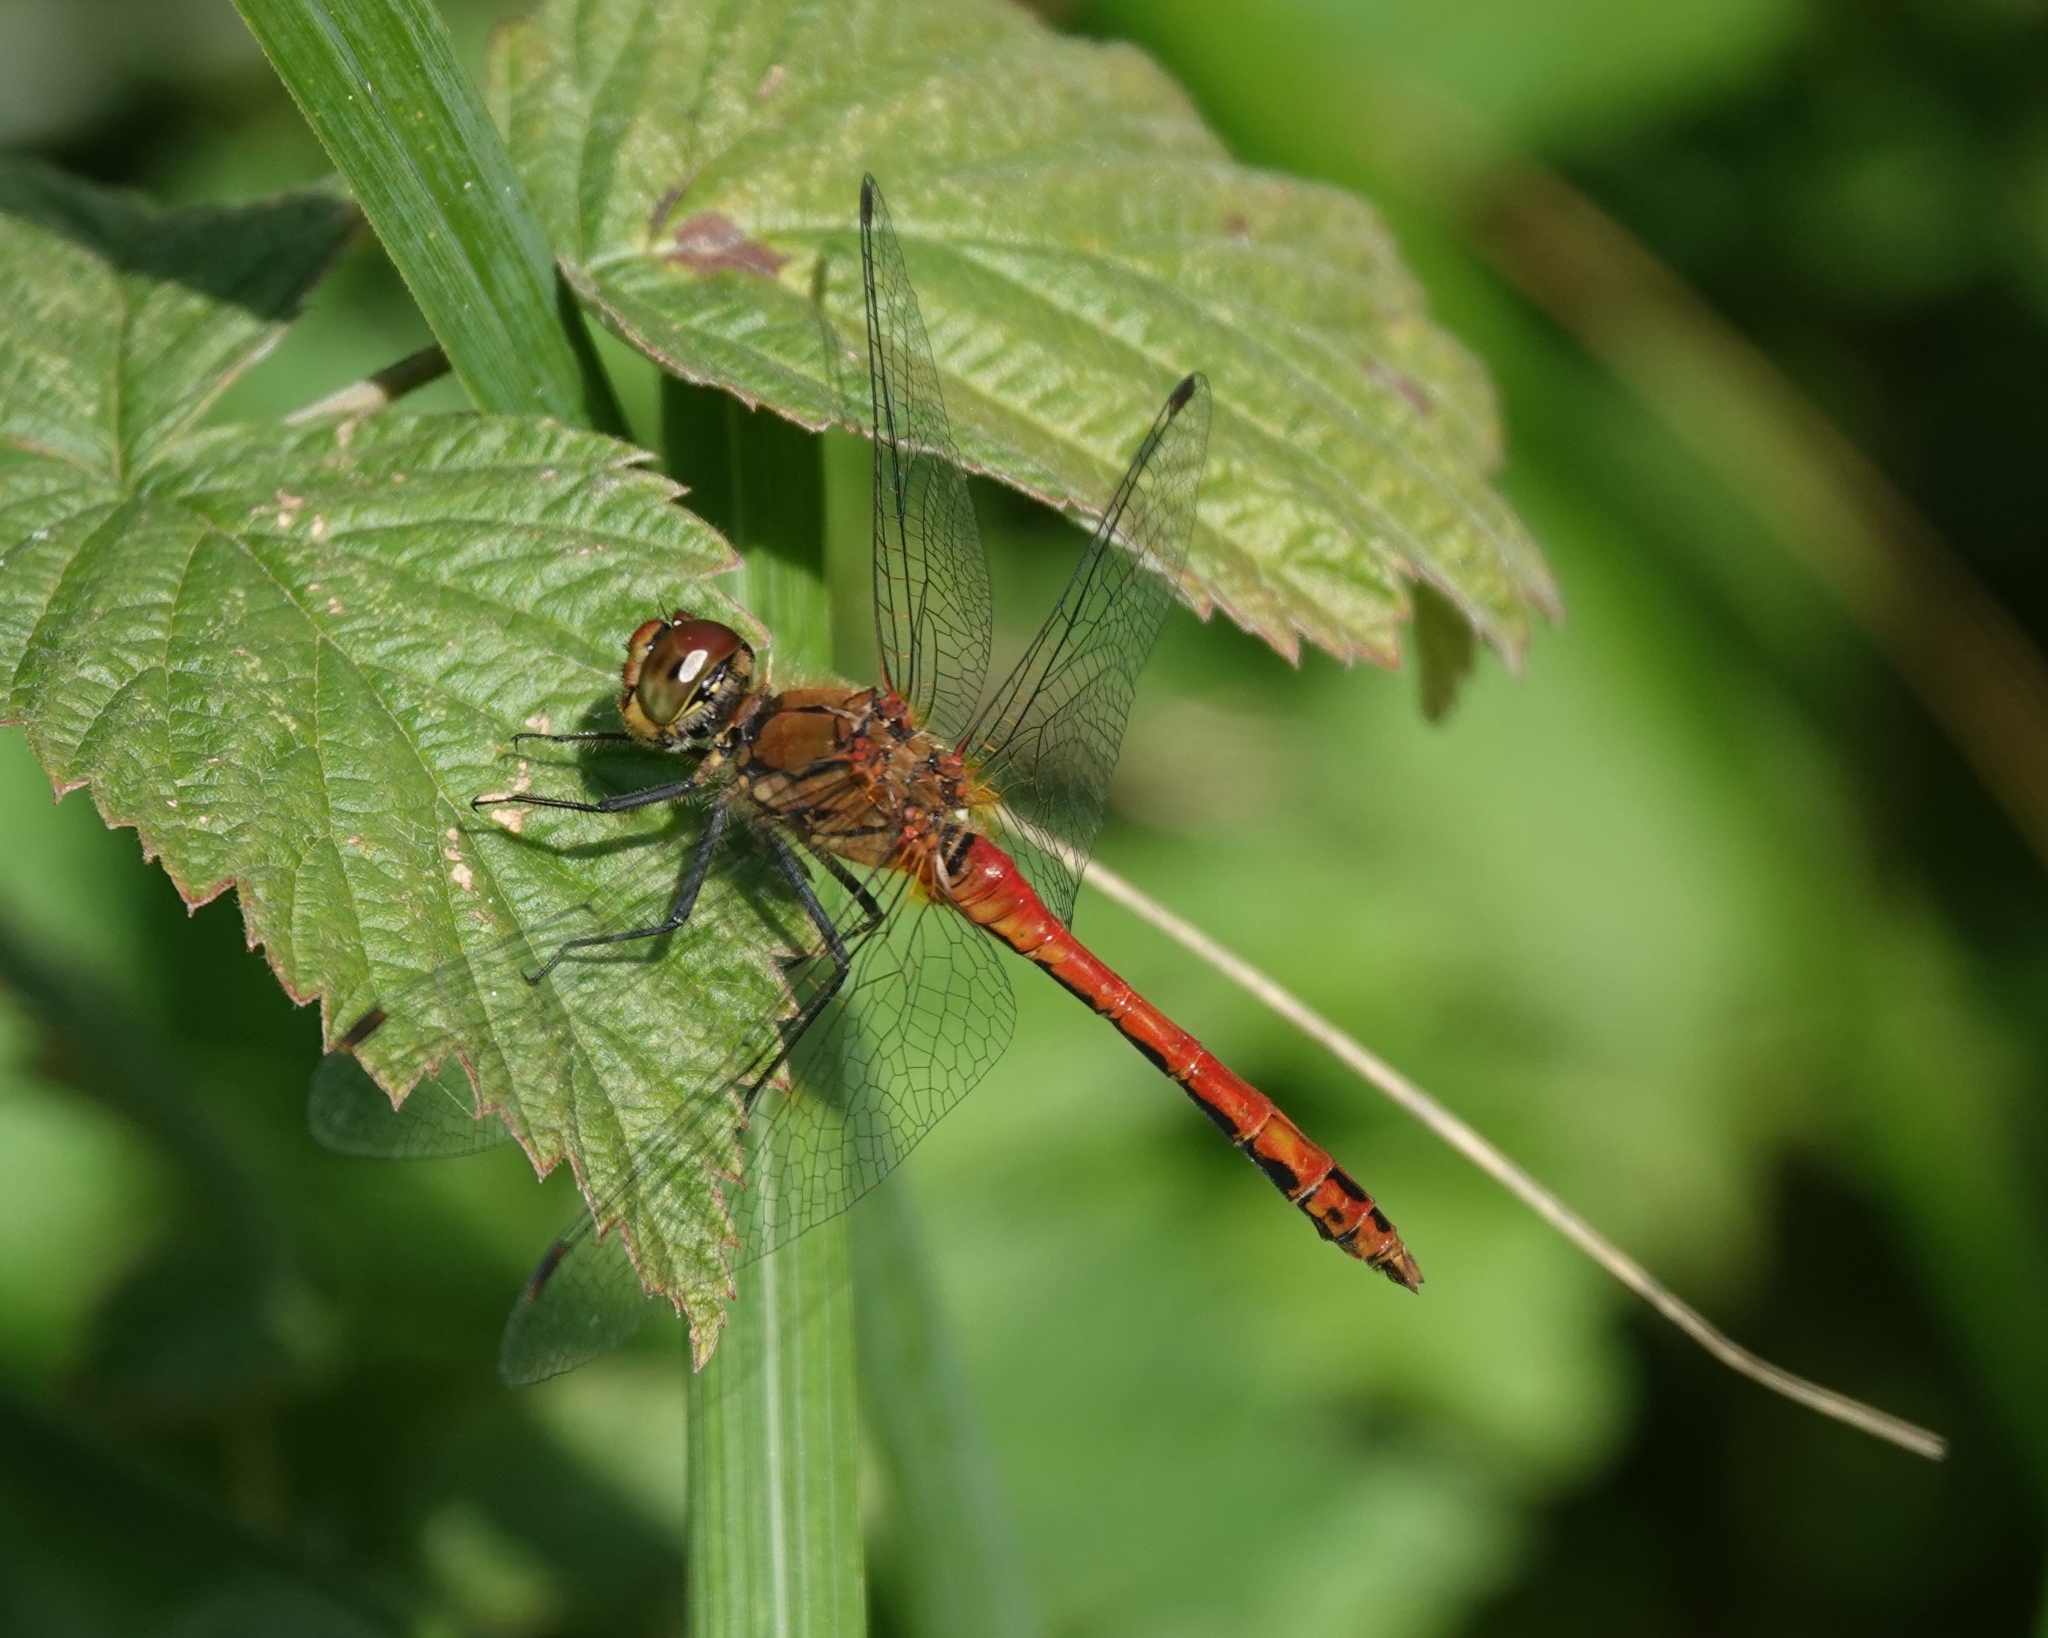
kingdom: Animalia
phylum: Arthropoda
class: Insecta
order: Odonata
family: Libellulidae
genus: Sympetrum
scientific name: Sympetrum sanguineum
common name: Ruddy darter
